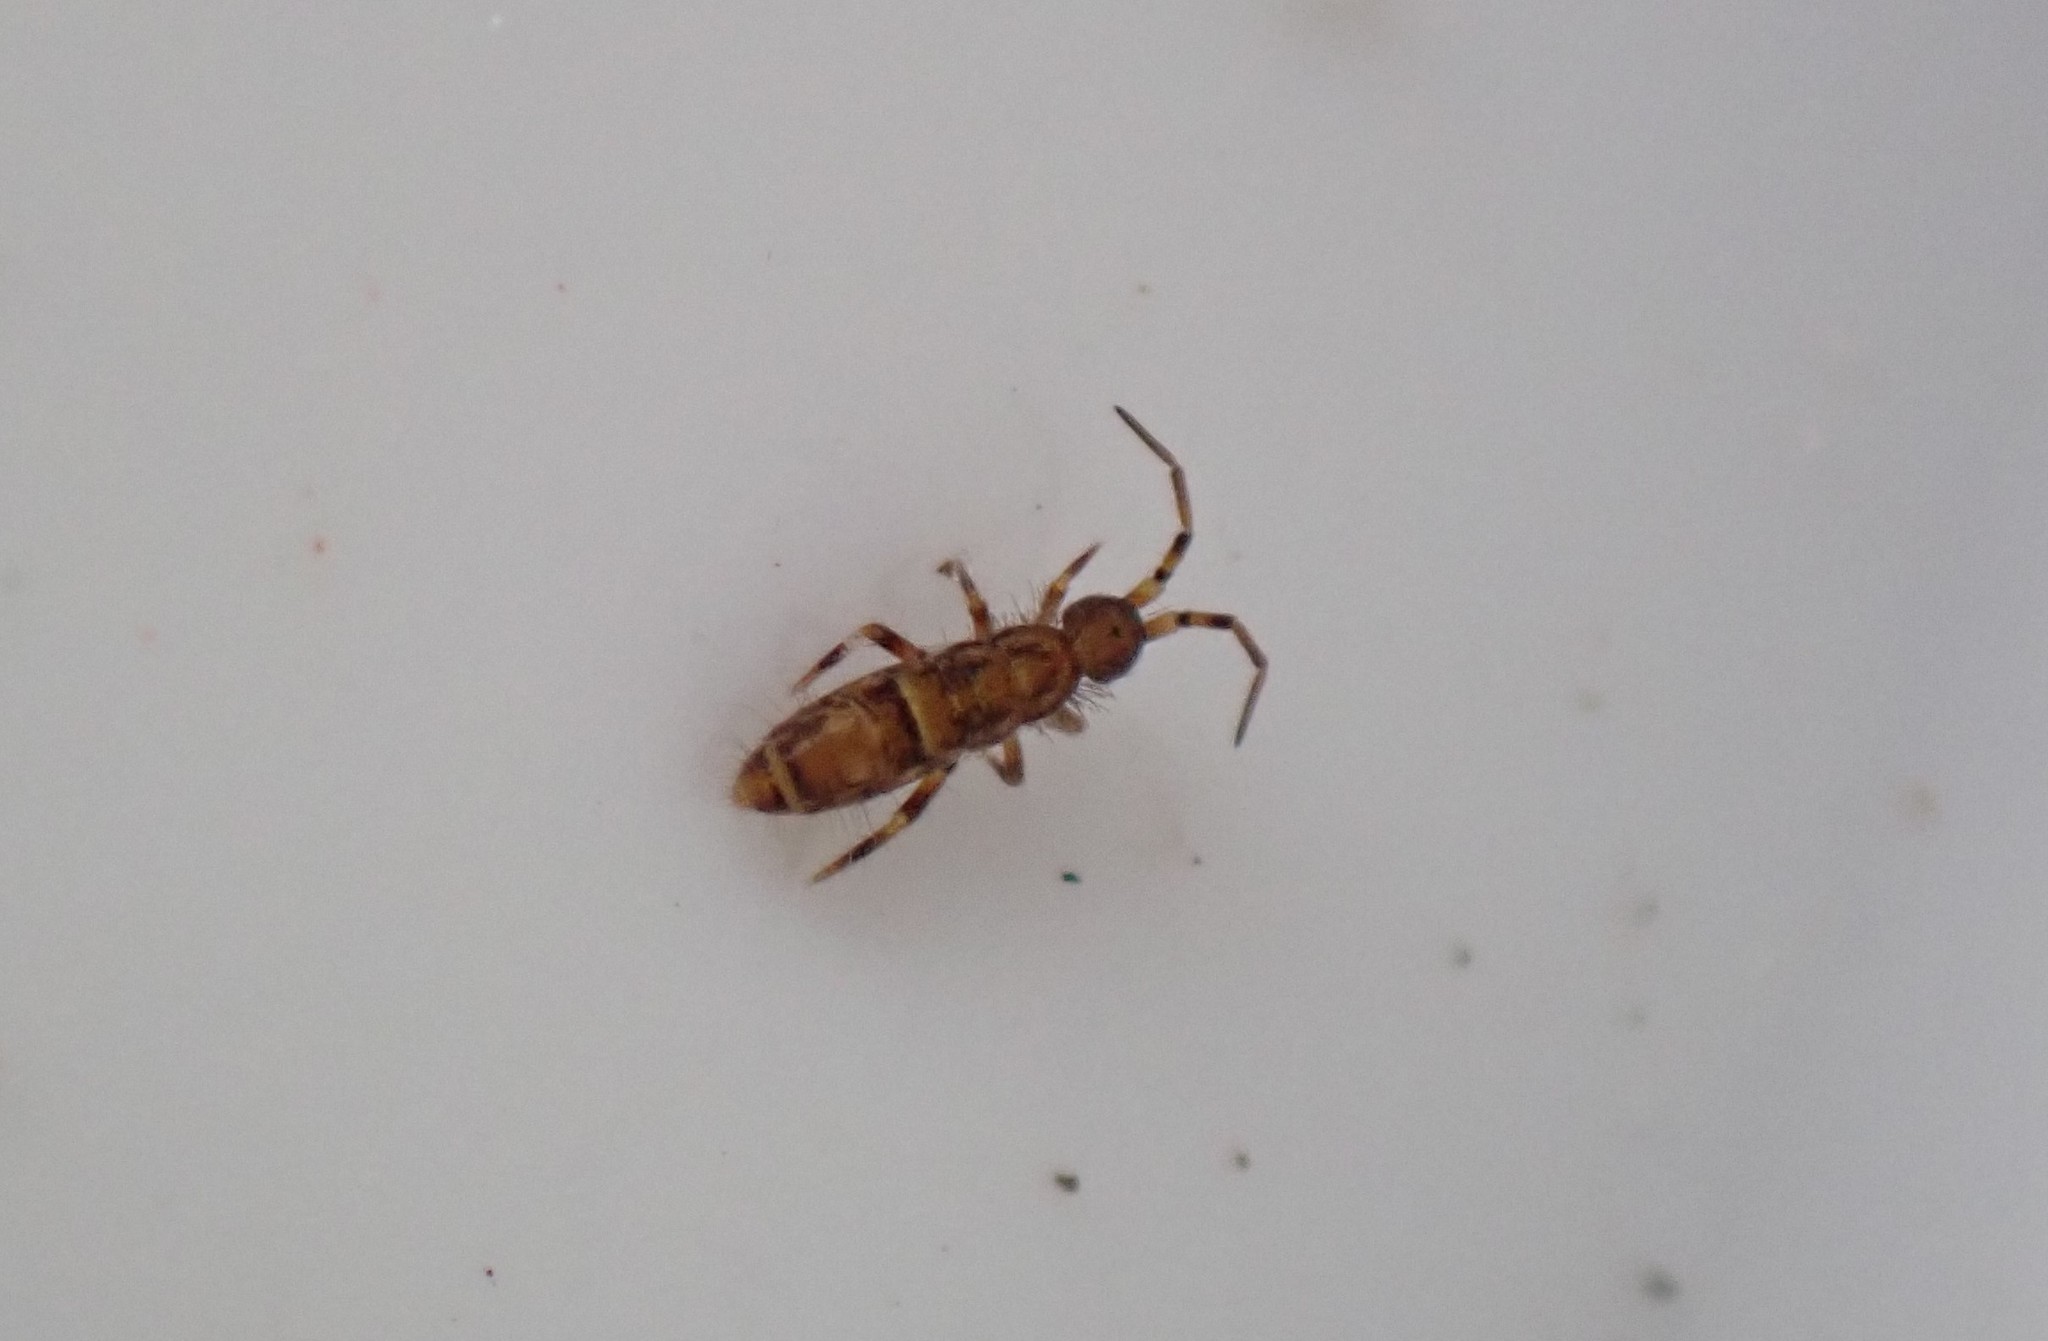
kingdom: Animalia
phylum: Arthropoda
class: Collembola
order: Entomobryomorpha
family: Orchesellidae
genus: Orchesella
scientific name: Orchesella cincta
